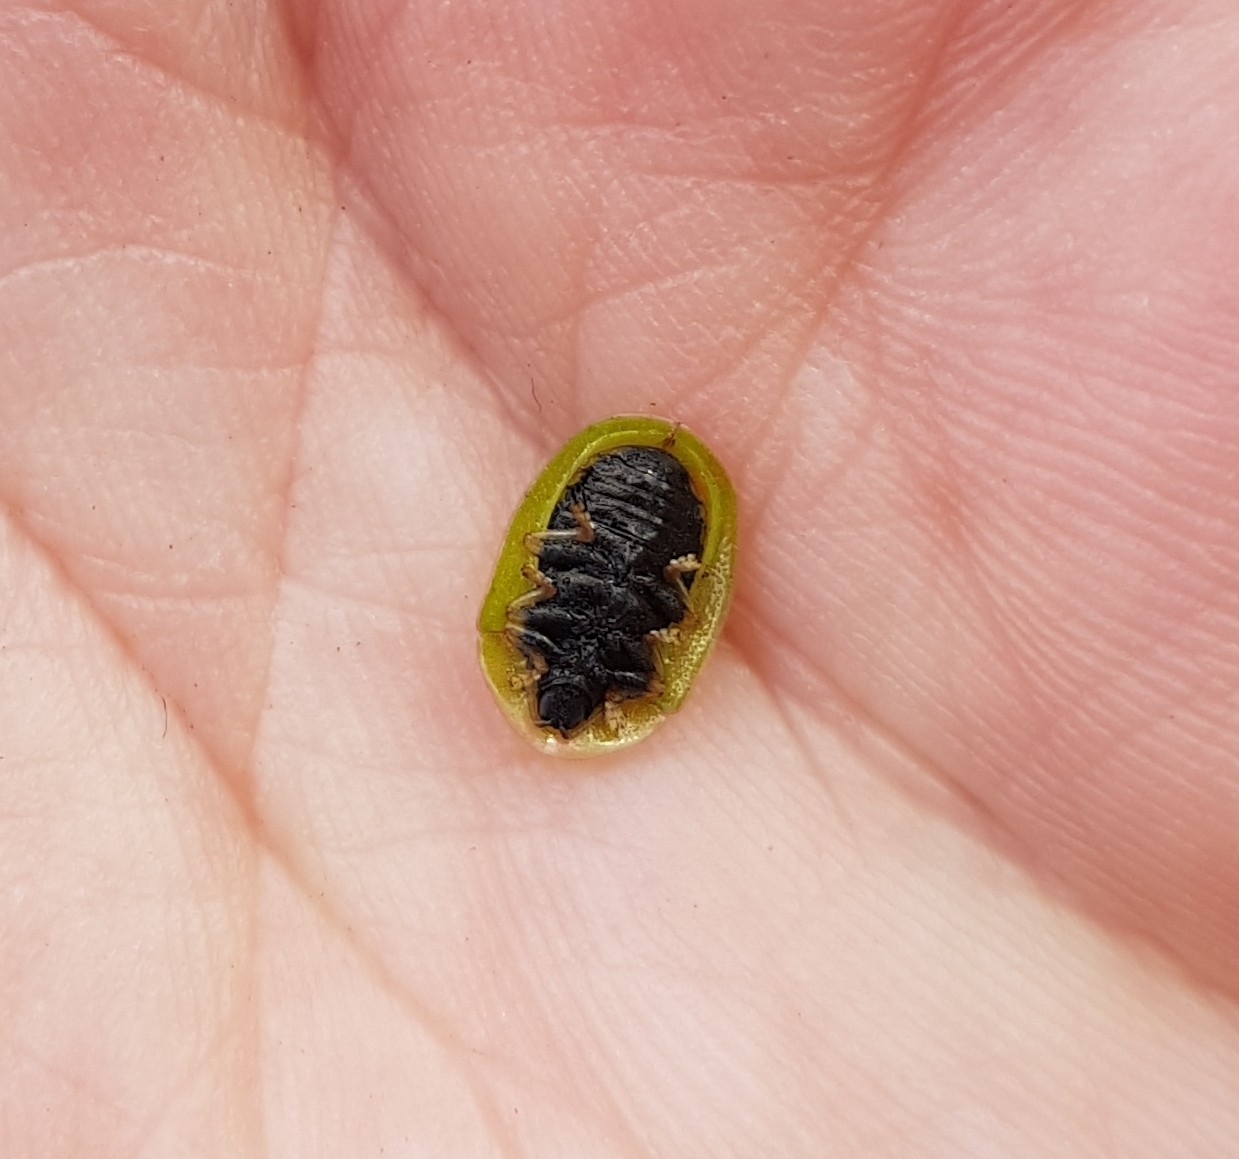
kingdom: Animalia
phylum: Arthropoda
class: Insecta
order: Coleoptera
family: Chrysomelidae
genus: Cassida
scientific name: Cassida rubiginosa
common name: Thistle tortoise beetle
